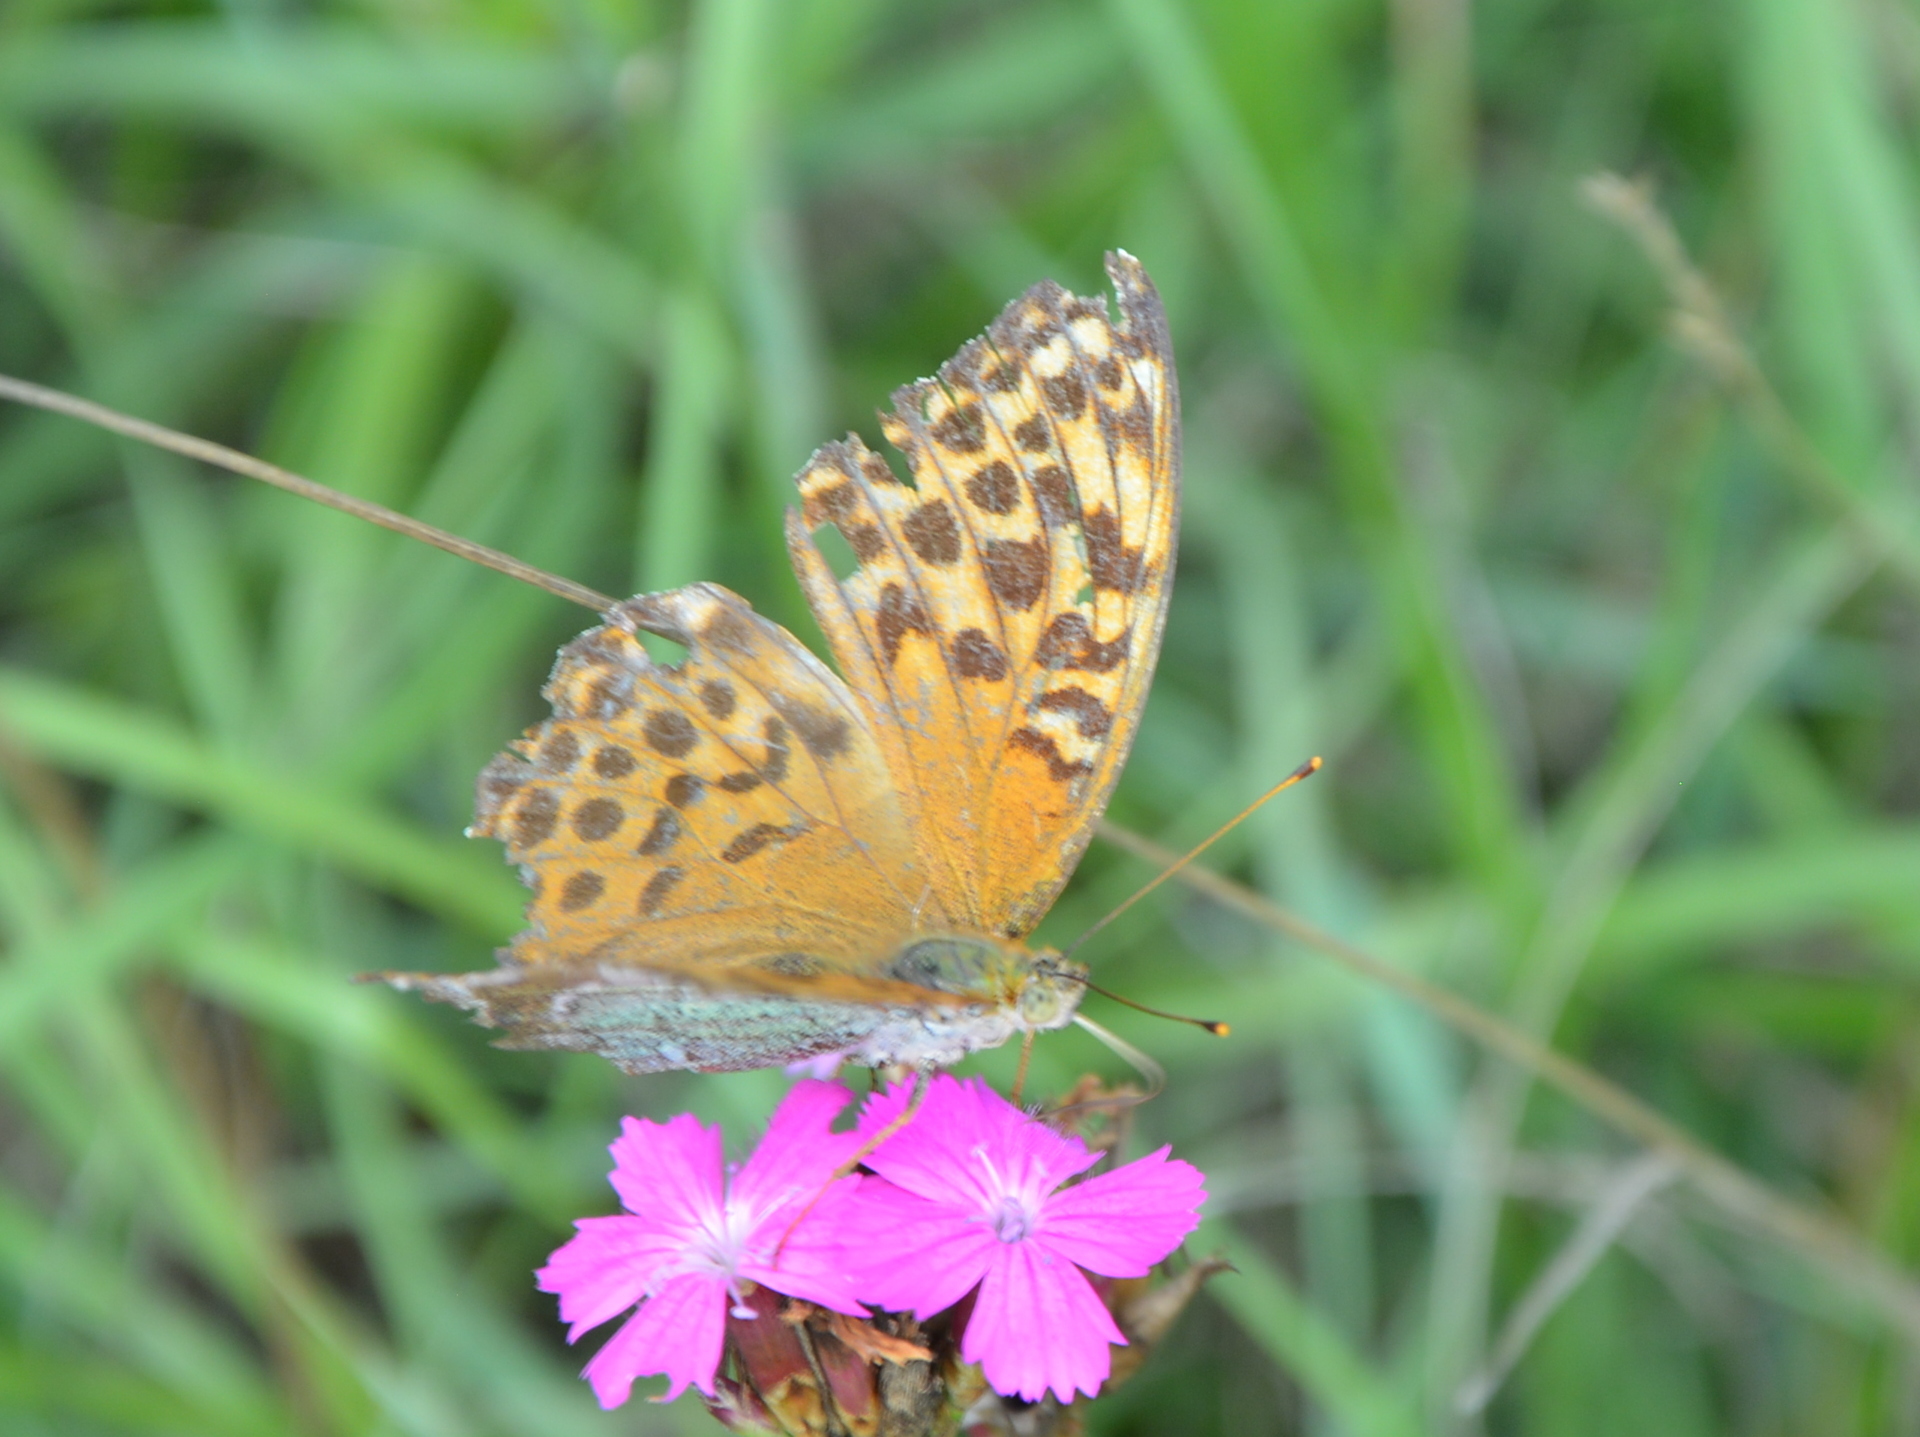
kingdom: Animalia
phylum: Arthropoda
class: Insecta
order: Lepidoptera
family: Nymphalidae
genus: Argynnis
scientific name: Argynnis paphia
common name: Silver-washed fritillary
